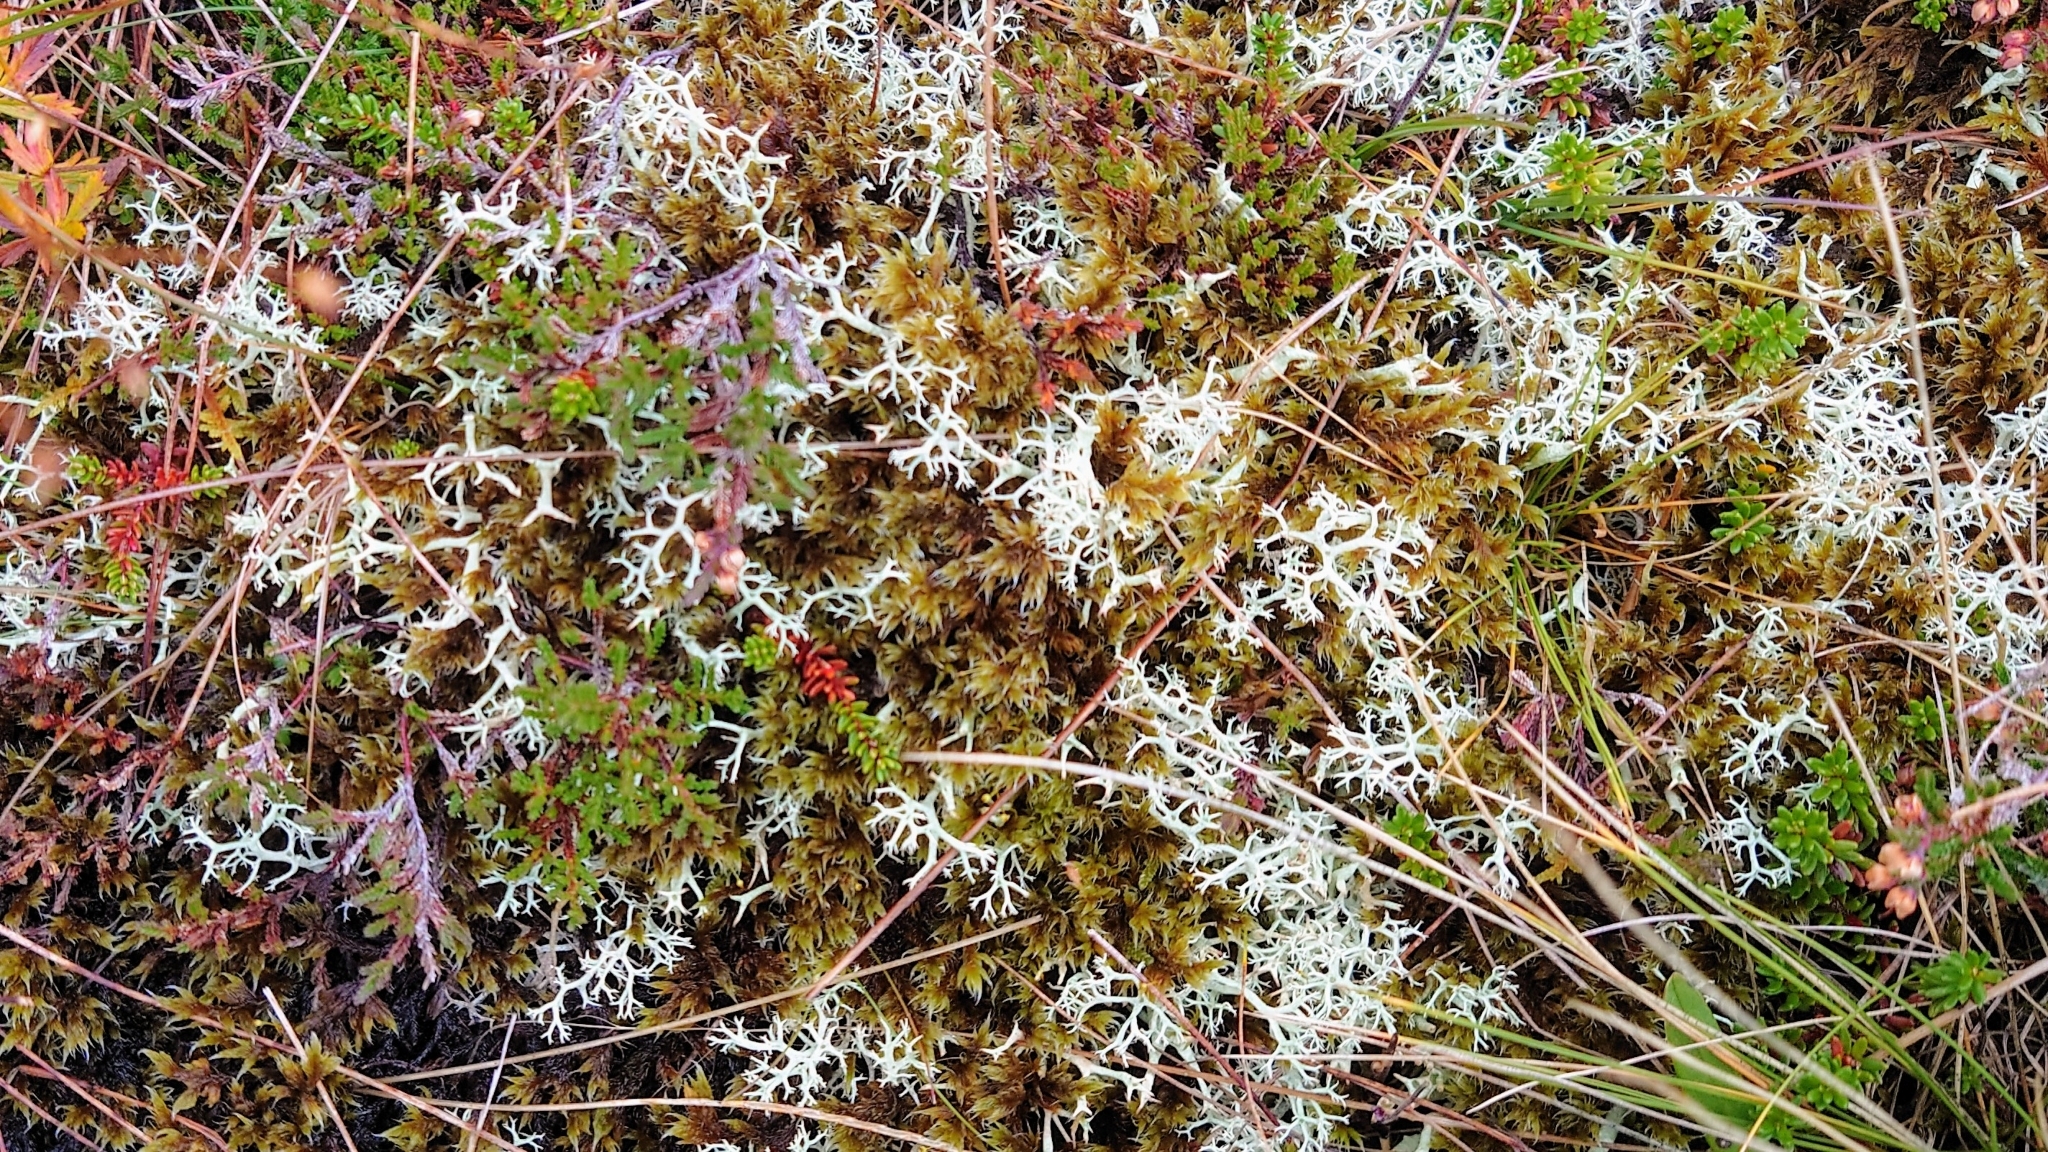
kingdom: Fungi
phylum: Ascomycota
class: Lecanoromycetes
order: Lecanorales
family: Cladoniaceae
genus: Cladonia
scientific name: Cladonia portentosa
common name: Reindeer lichen
